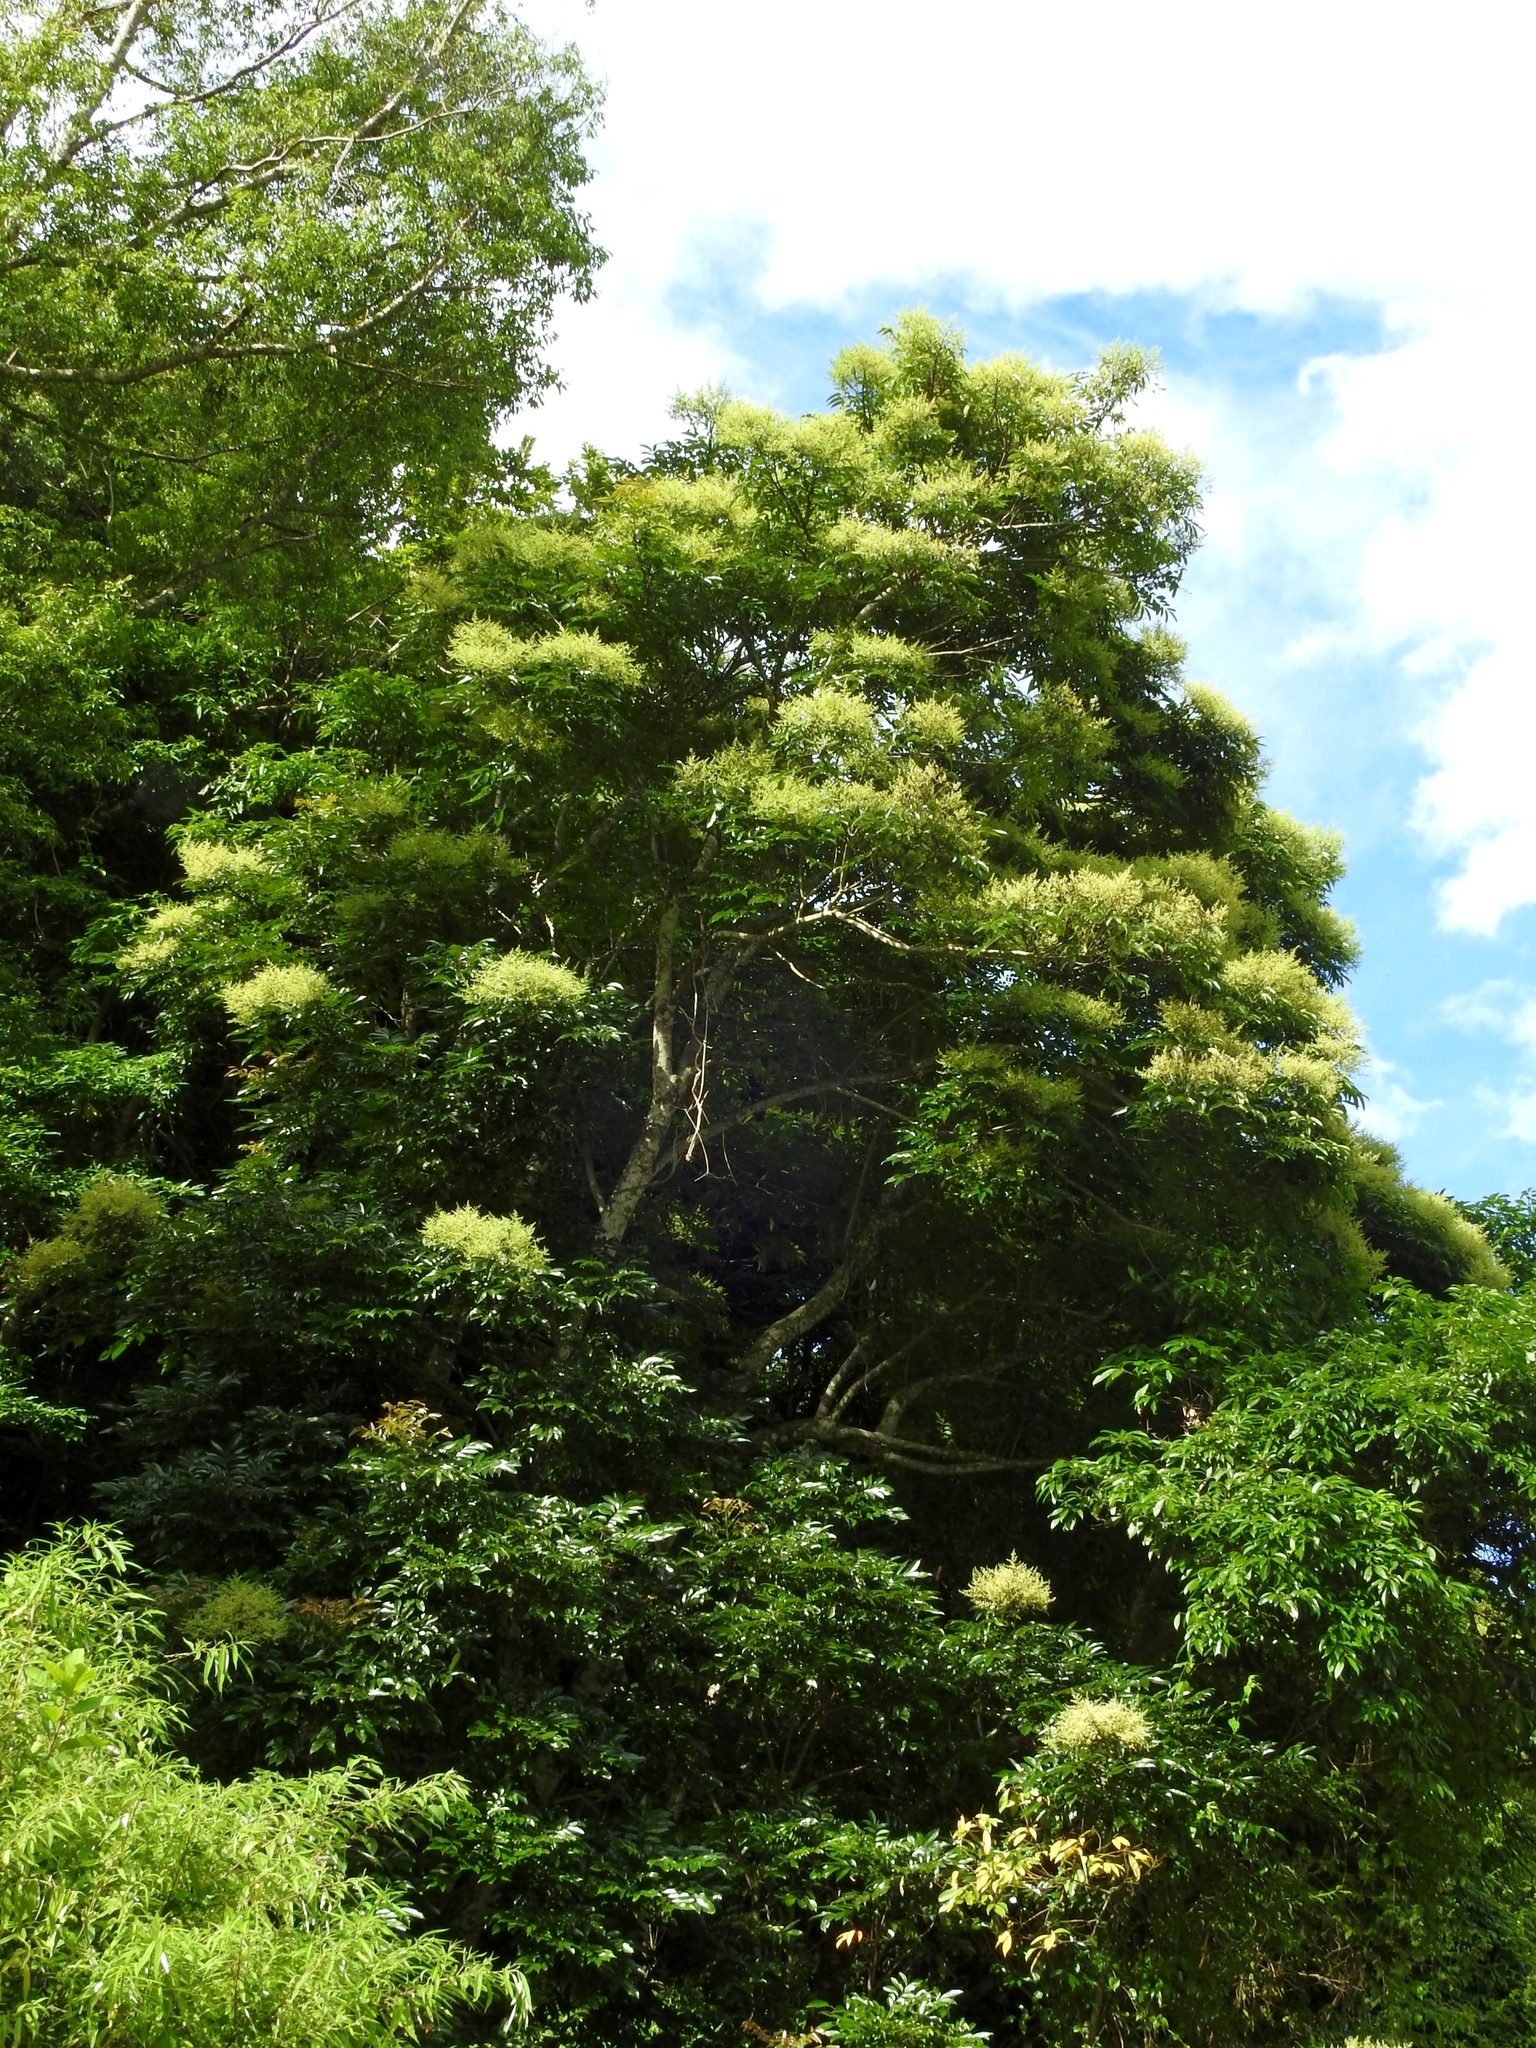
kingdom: Plantae
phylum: Tracheophyta
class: Magnoliopsida
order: Proteales
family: Sabiaceae
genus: Meliosma
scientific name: Meliosma rhoifolia
